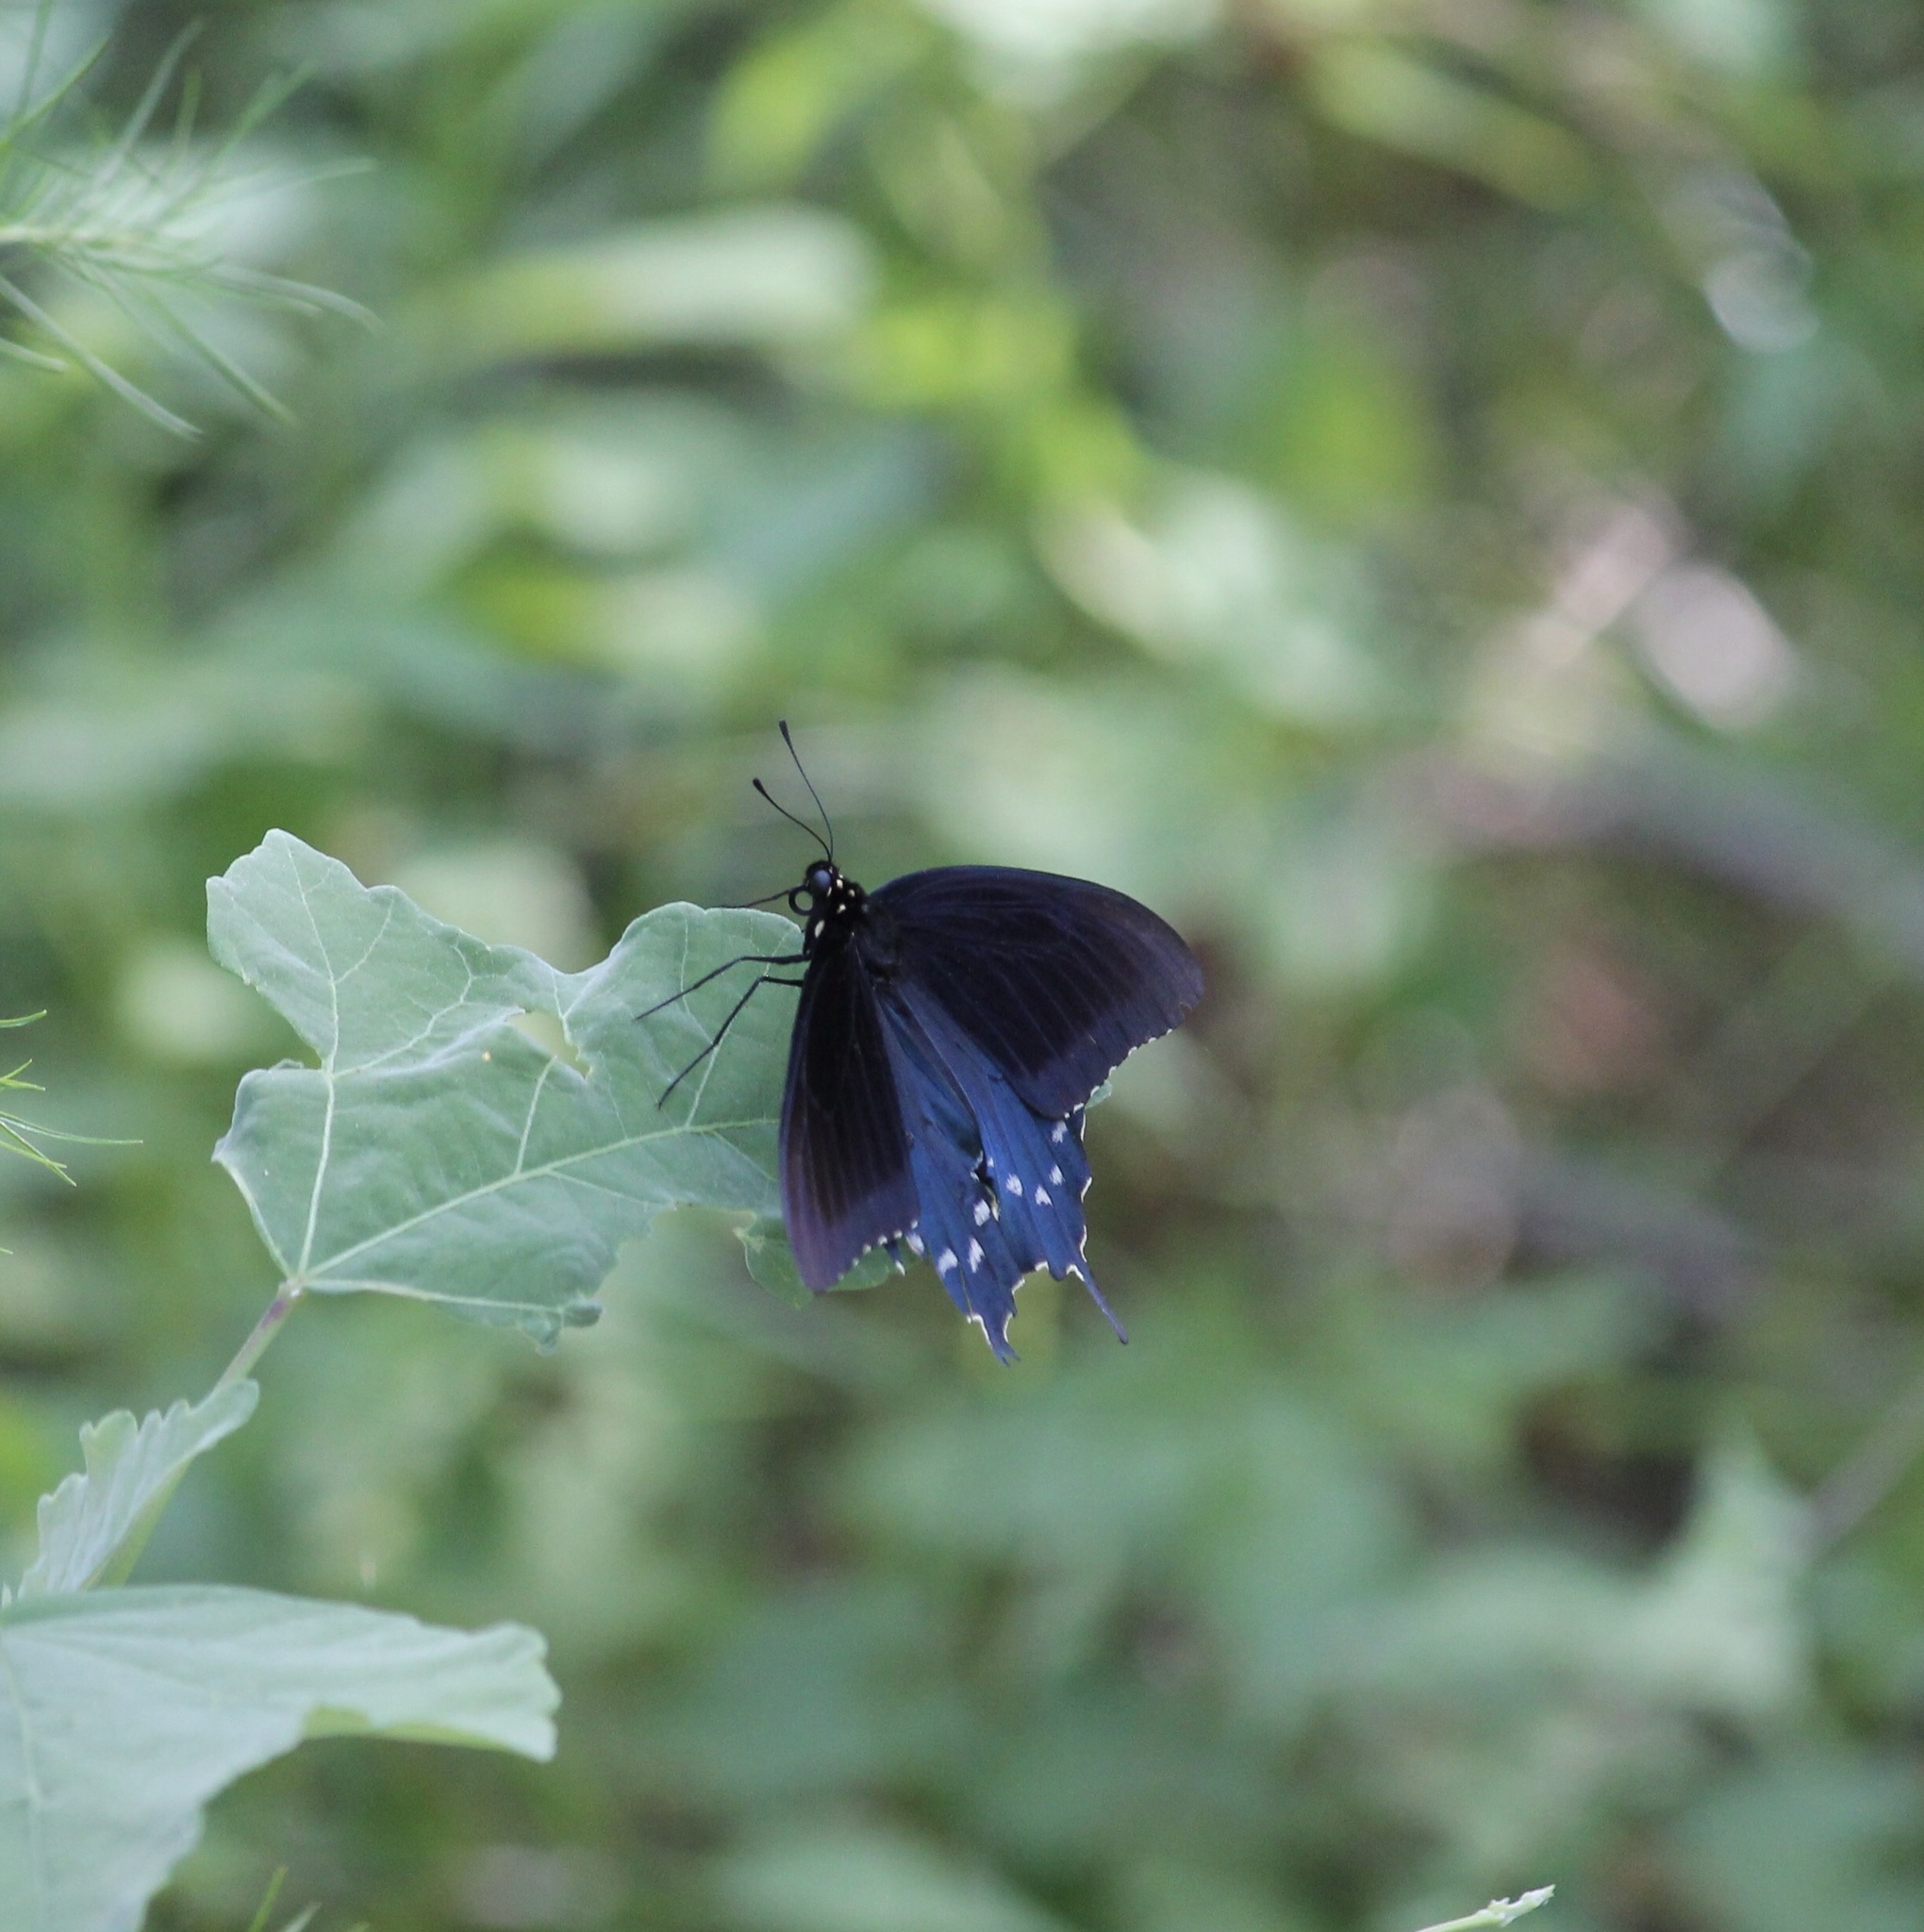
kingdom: Animalia
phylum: Arthropoda
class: Insecta
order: Lepidoptera
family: Papilionidae
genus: Battus
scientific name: Battus philenor
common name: Pipevine swallowtail
